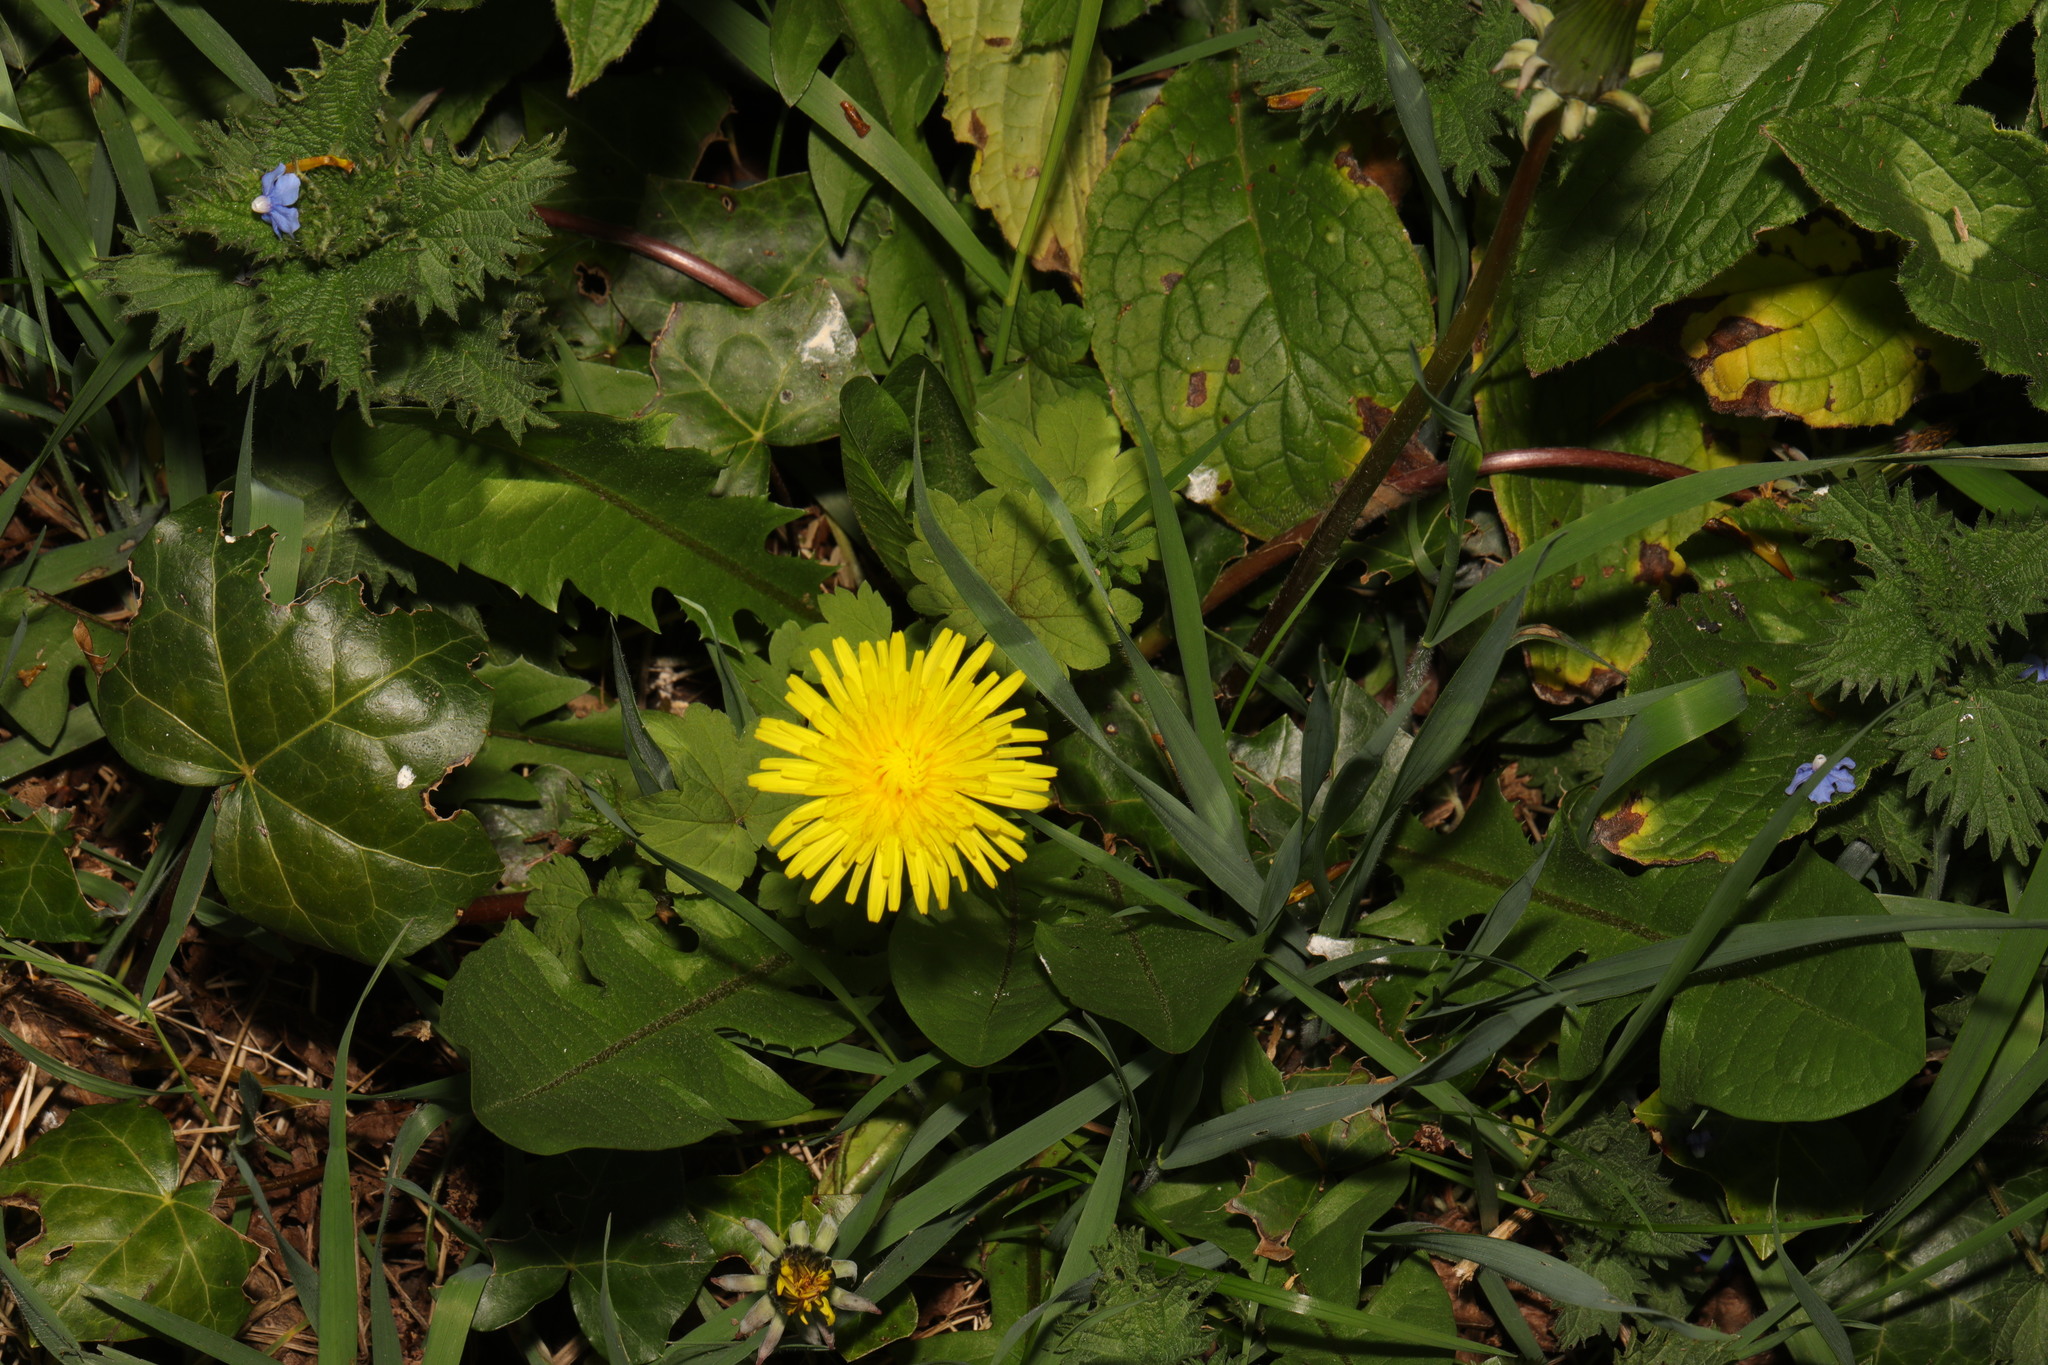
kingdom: Plantae
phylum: Tracheophyta
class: Magnoliopsida
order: Asterales
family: Asteraceae
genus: Taraxacum
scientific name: Taraxacum officinale
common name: Common dandelion
